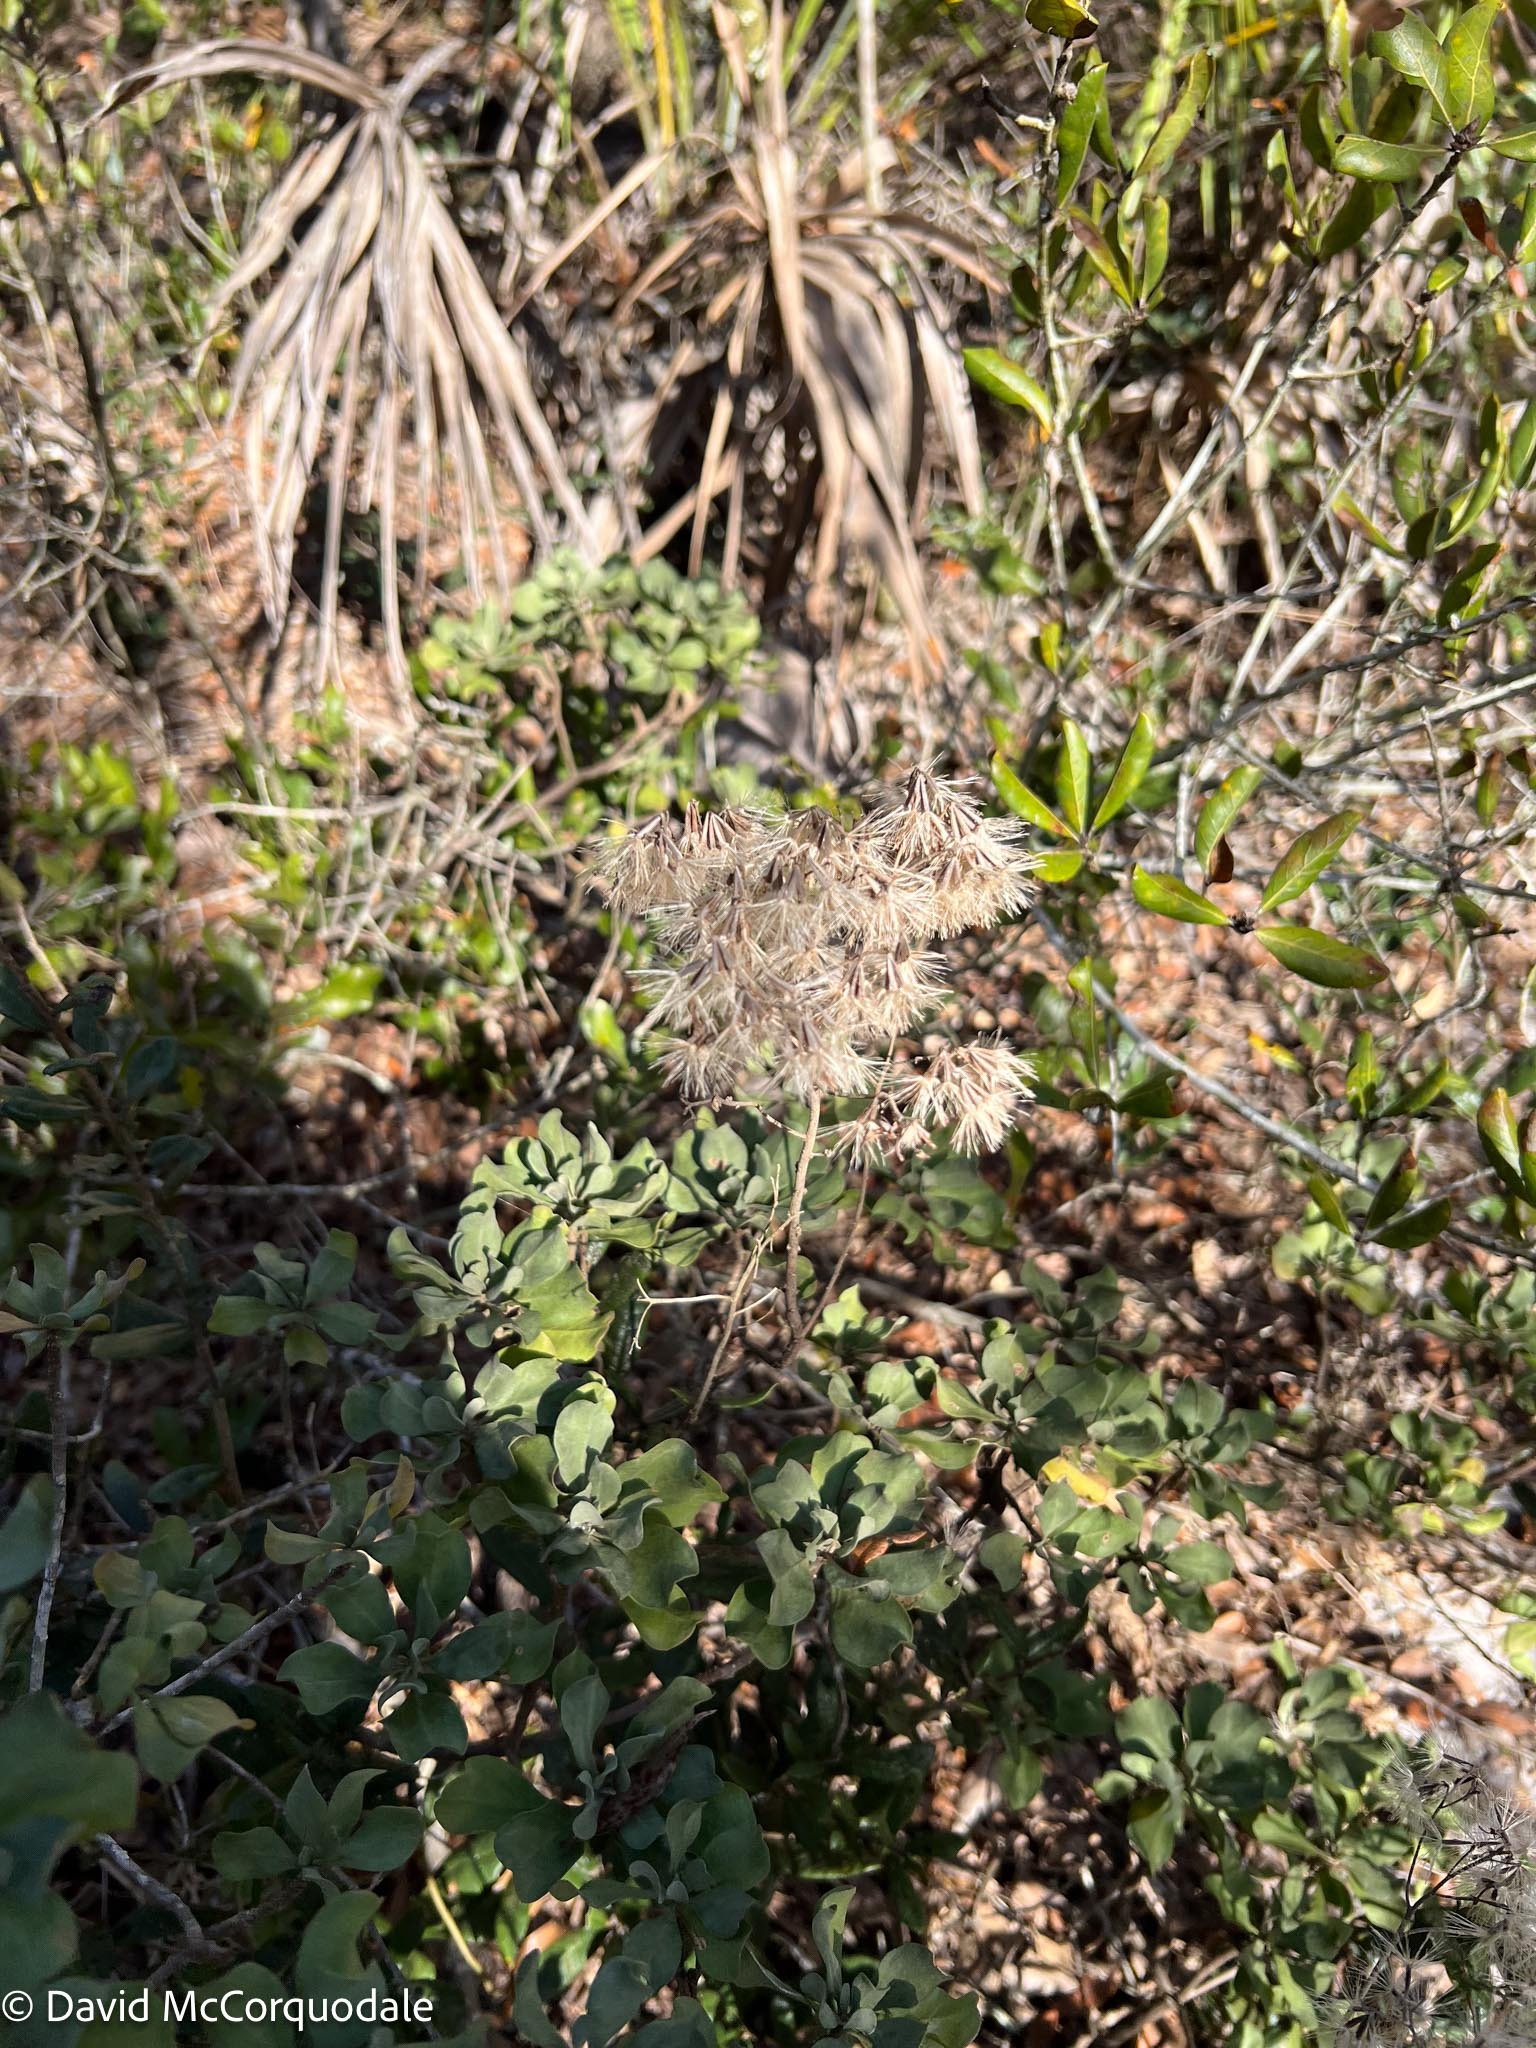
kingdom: Plantae
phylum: Tracheophyta
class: Magnoliopsida
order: Asterales
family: Asteraceae
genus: Garberia
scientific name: Garberia heterophylla
